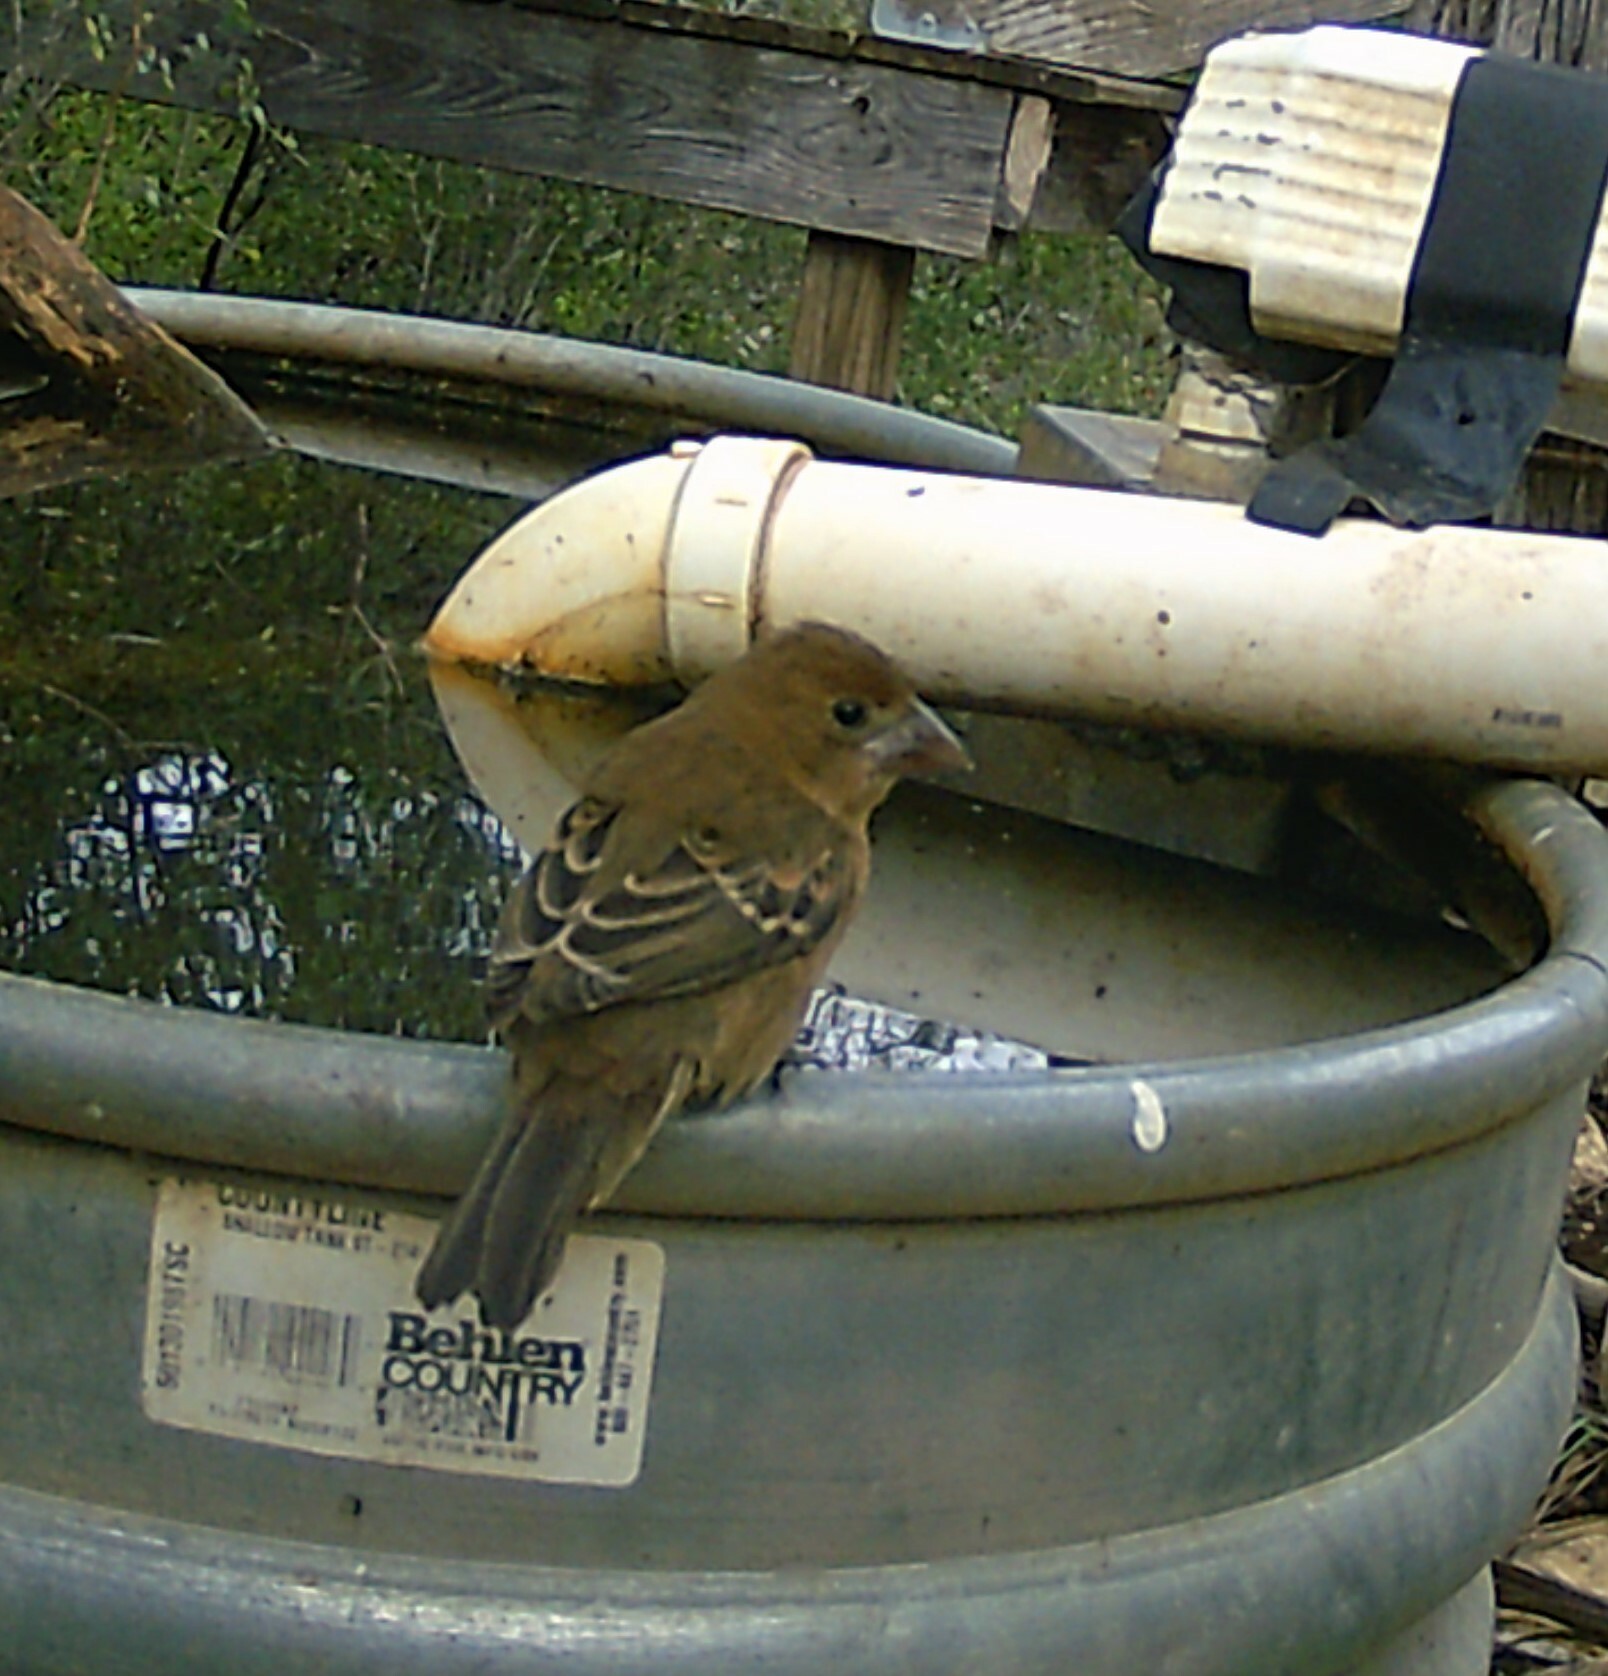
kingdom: Animalia
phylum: Chordata
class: Aves
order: Passeriformes
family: Cardinalidae
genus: Passerina
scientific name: Passerina caerulea
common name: Blue grosbeak
